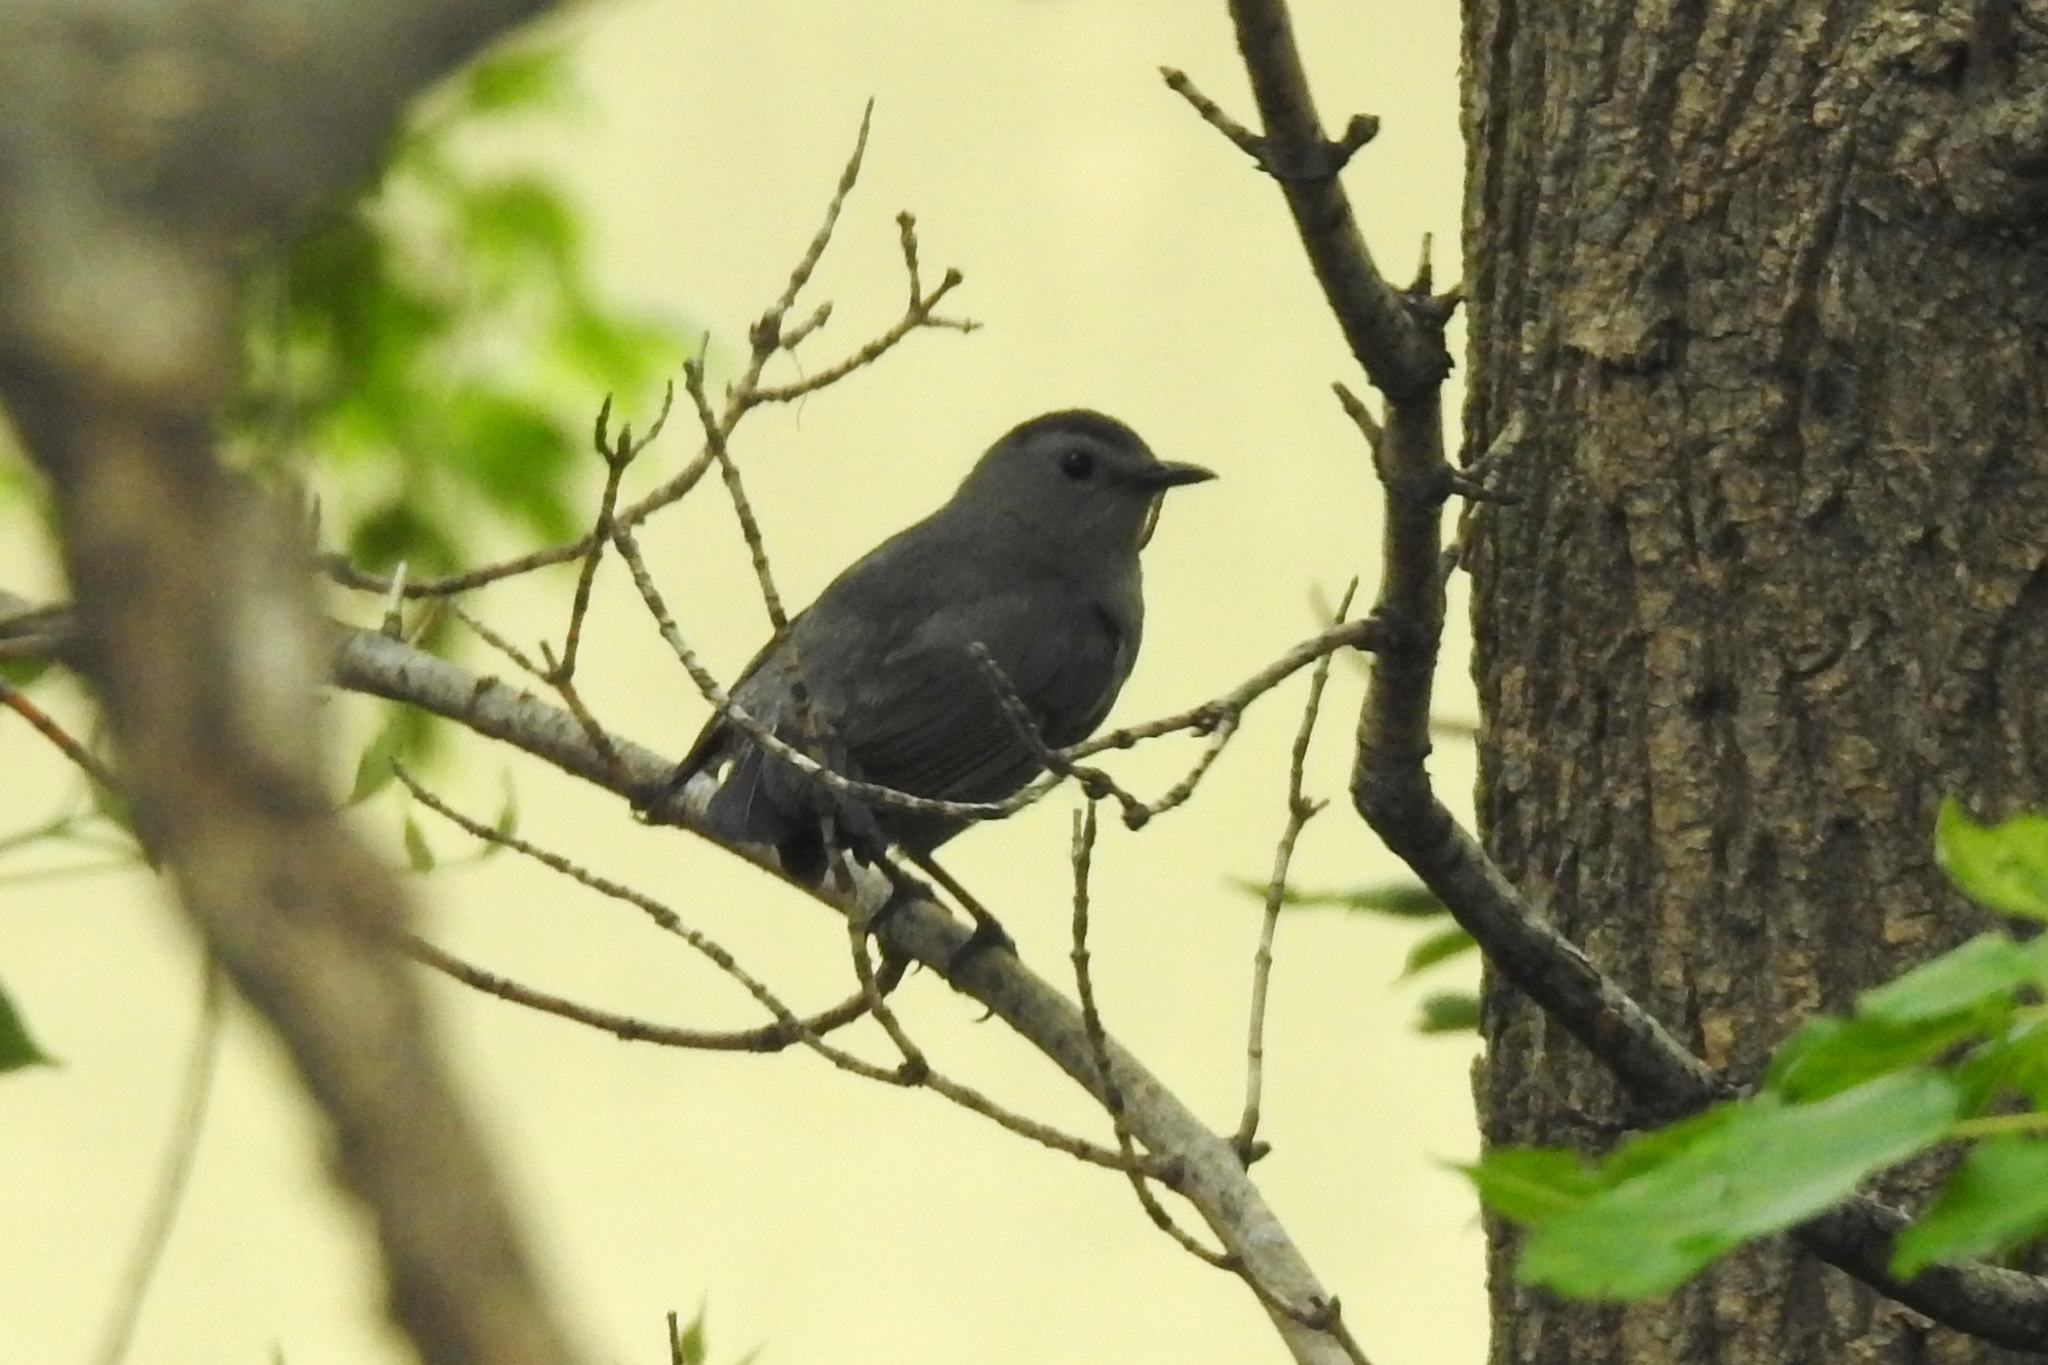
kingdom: Animalia
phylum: Chordata
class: Aves
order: Passeriformes
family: Mimidae
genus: Dumetella
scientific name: Dumetella carolinensis
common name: Gray catbird
